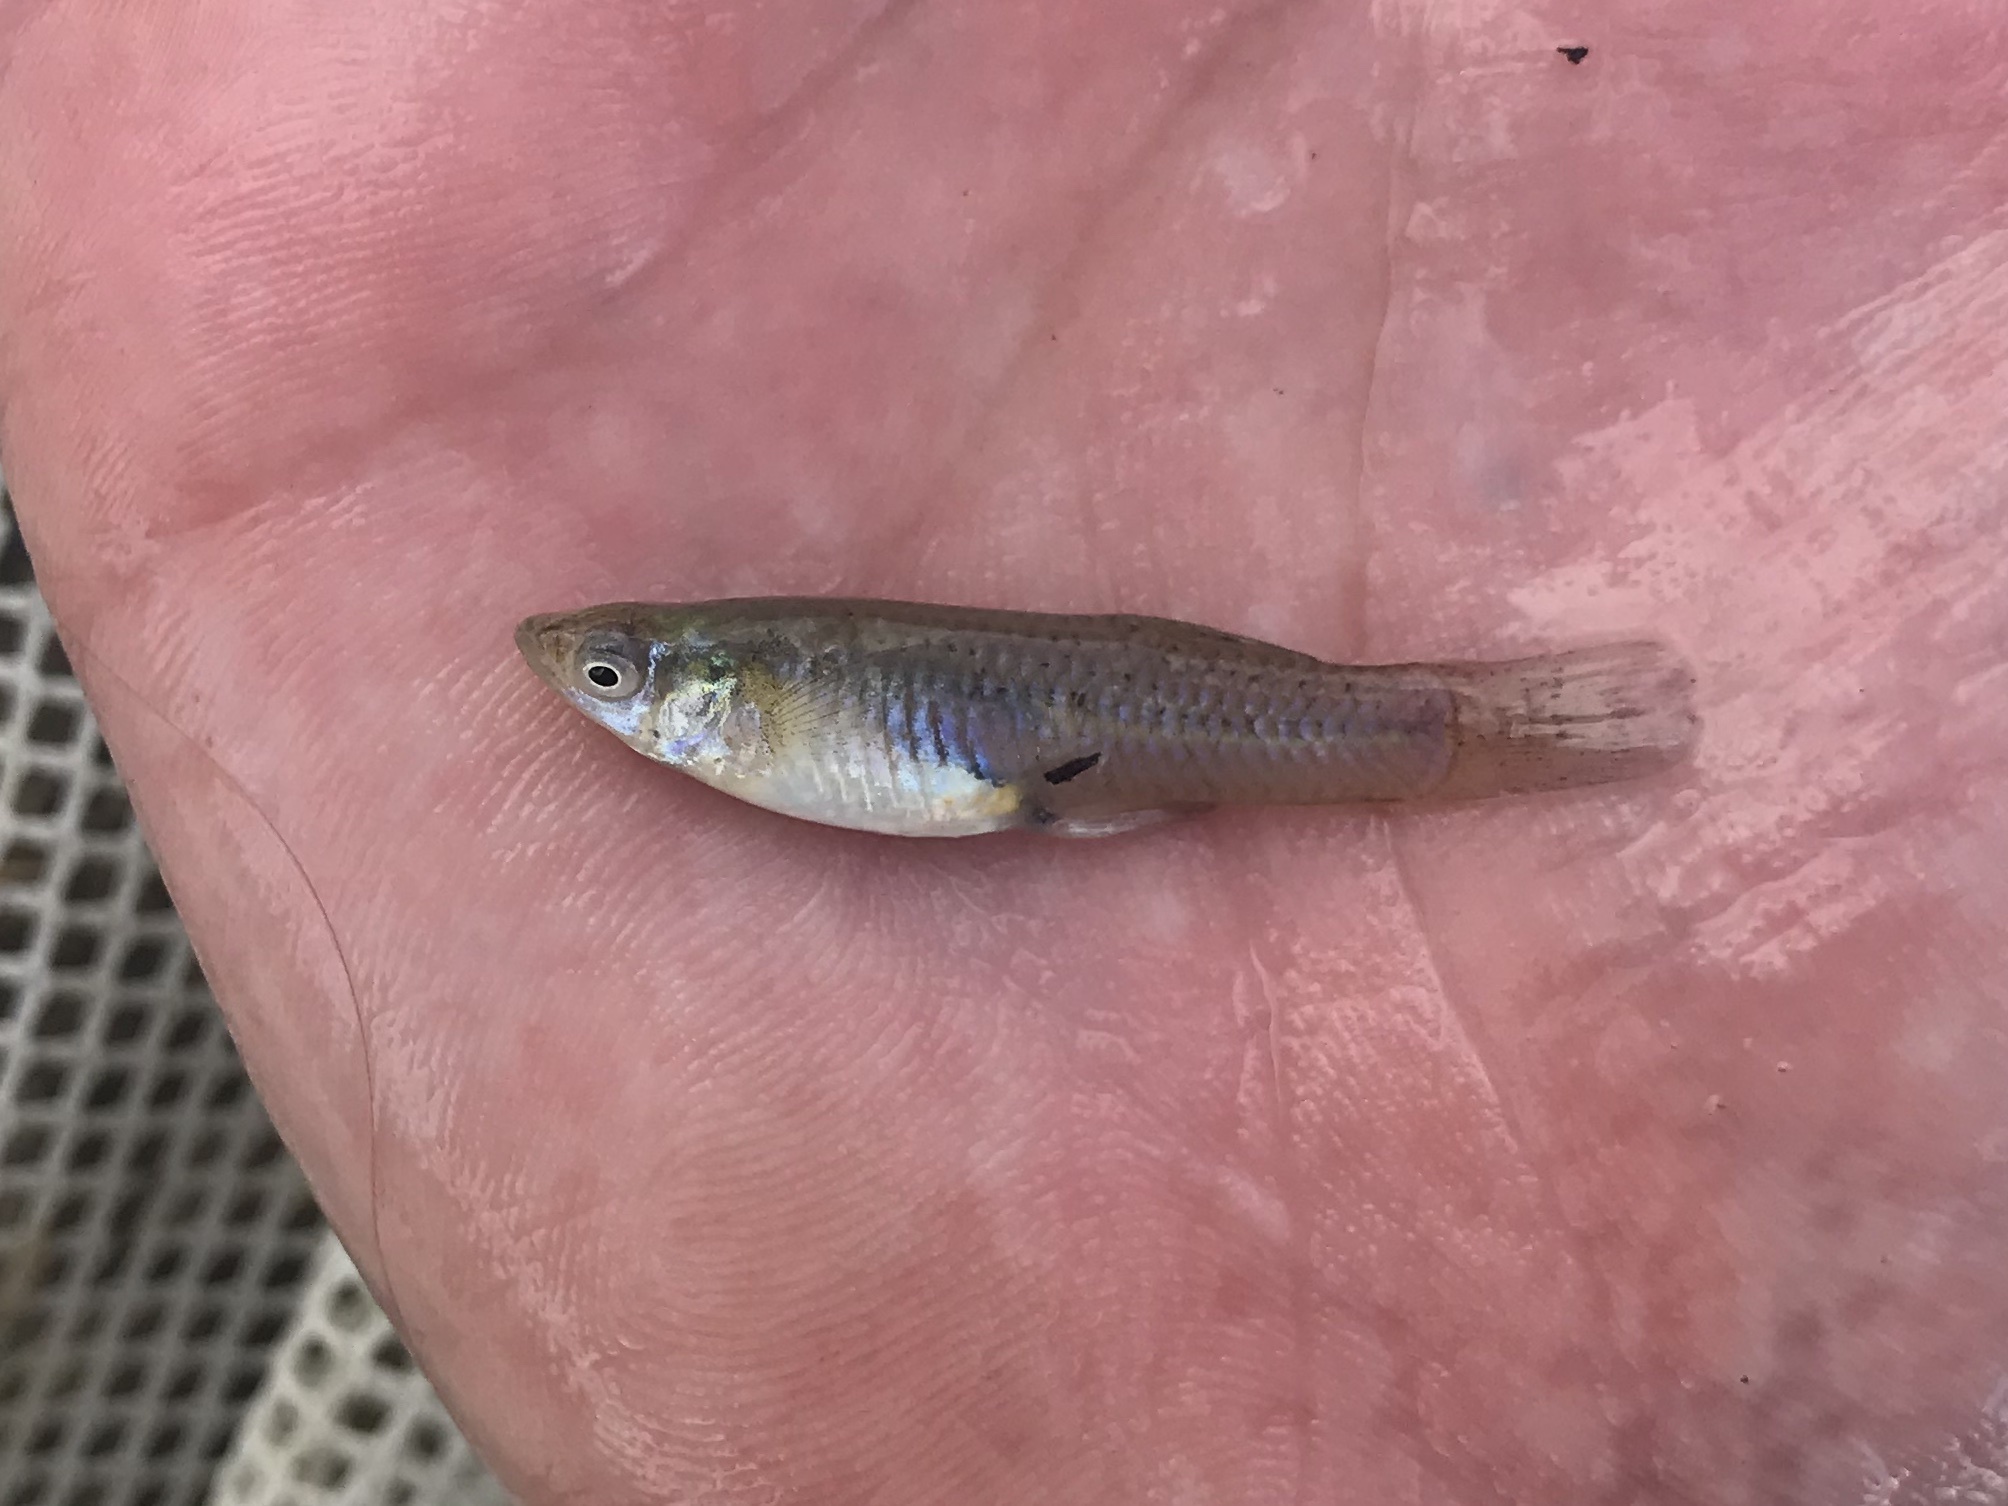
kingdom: Animalia
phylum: Chordata
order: Cyprinodontiformes
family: Poeciliidae
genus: Gambusia
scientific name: Gambusia affinis
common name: Mosquitofish
